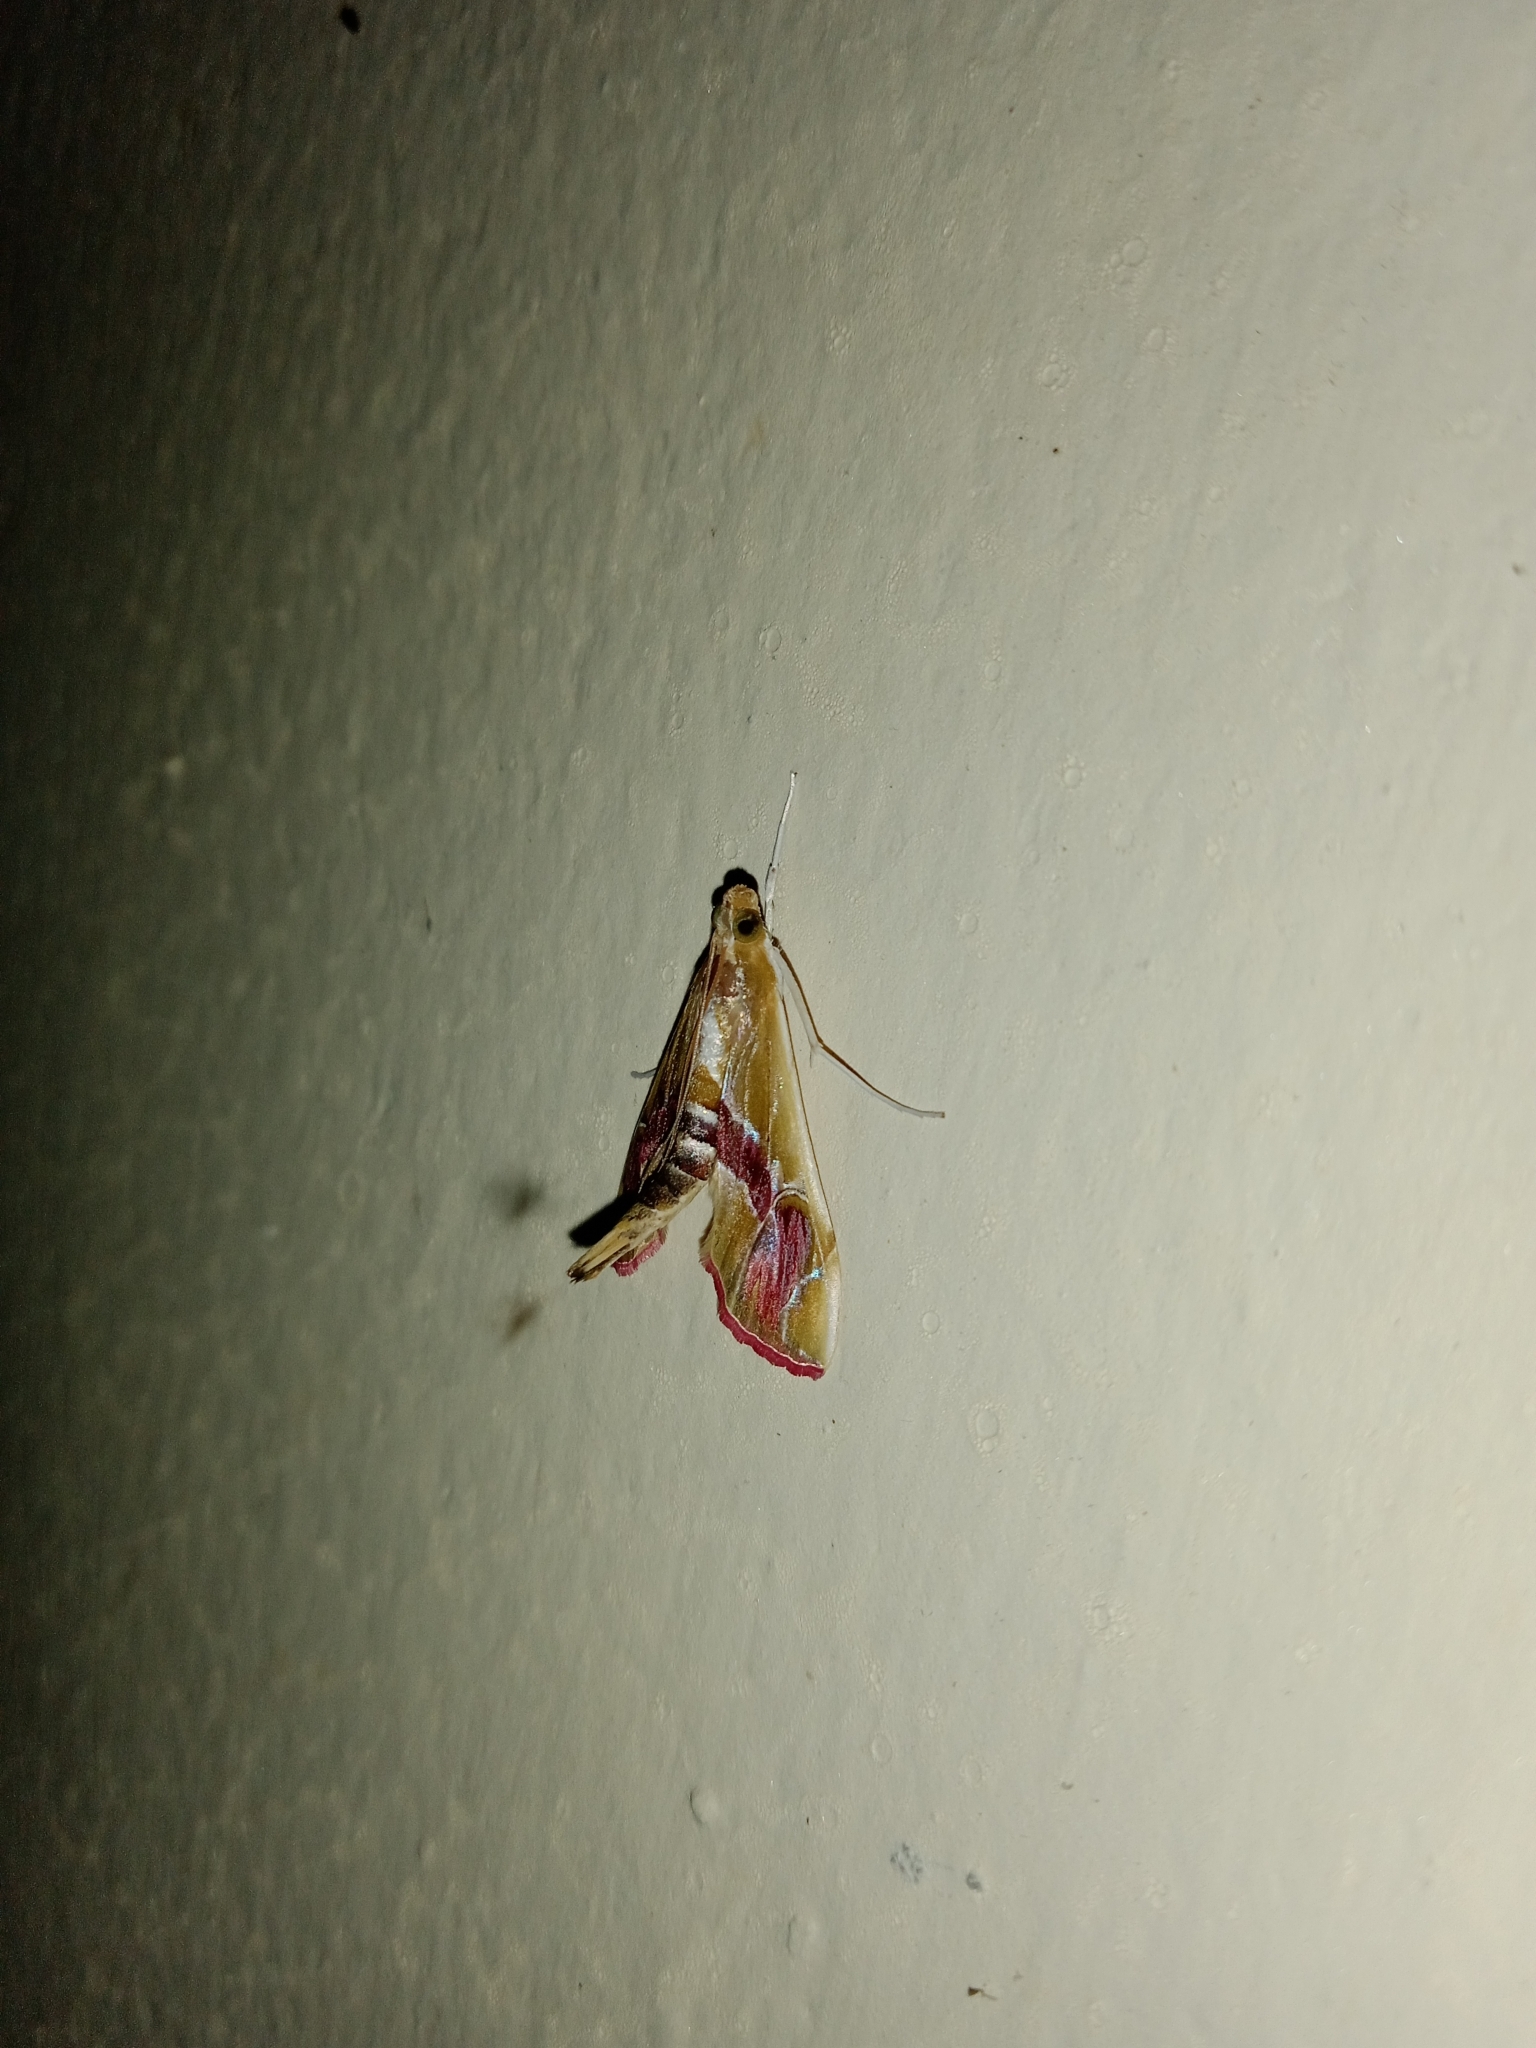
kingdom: Animalia
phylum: Arthropoda
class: Insecta
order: Lepidoptera
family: Crambidae
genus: Agathodes
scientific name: Agathodes ostentalis
